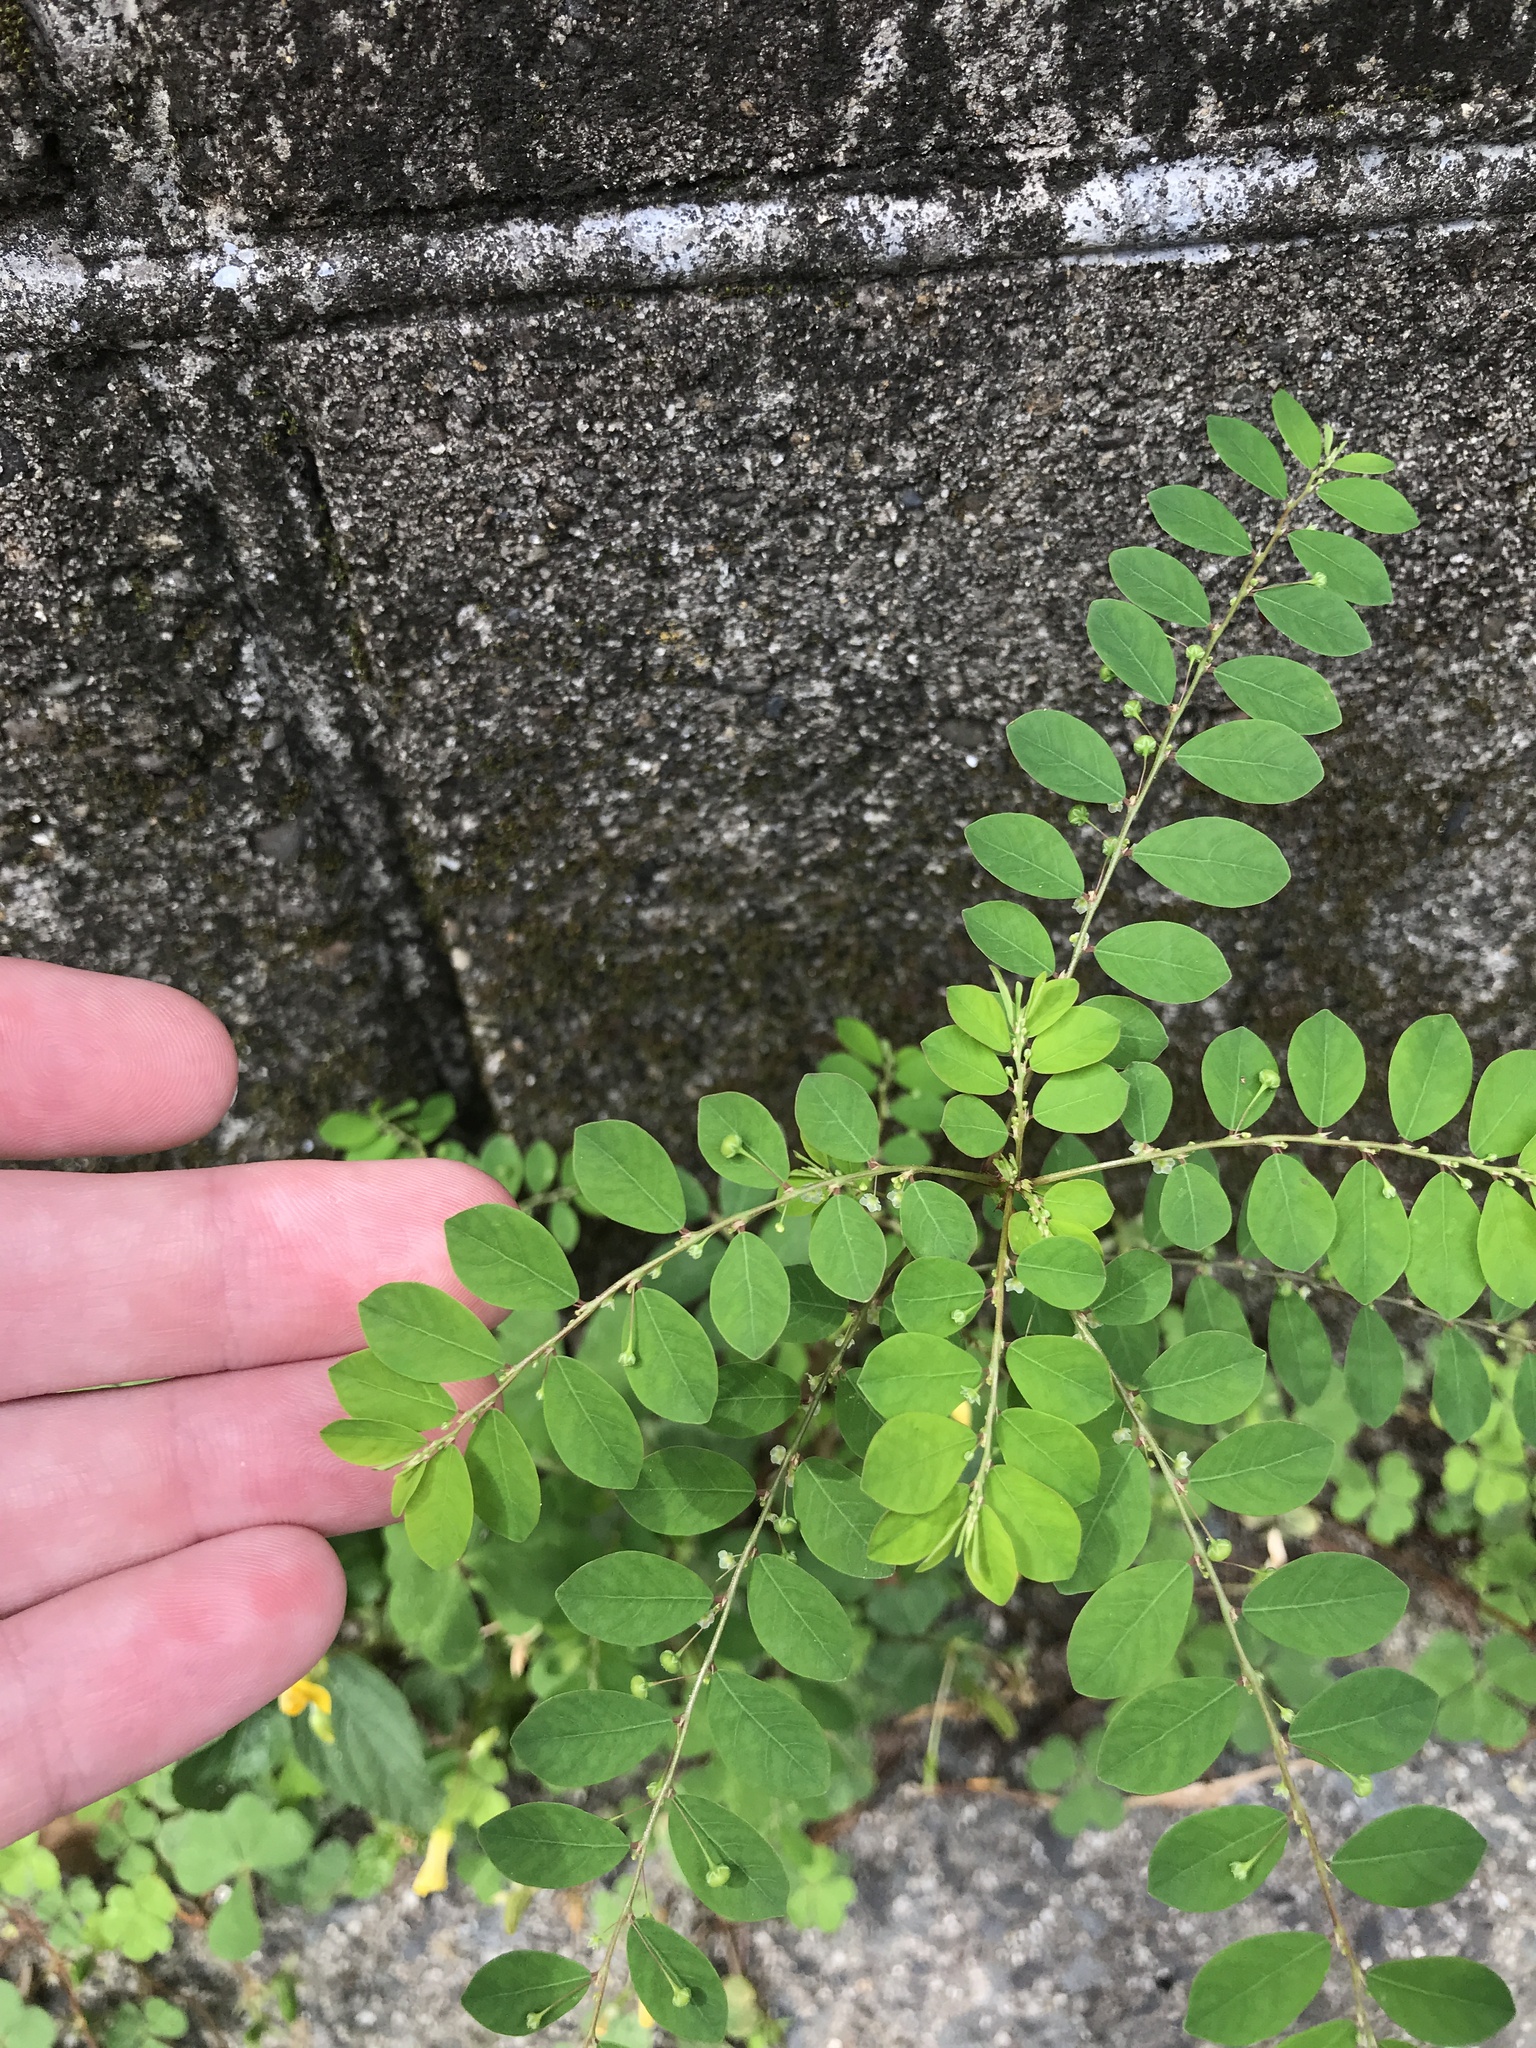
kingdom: Plantae
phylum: Tracheophyta
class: Magnoliopsida
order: Malpighiales
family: Phyllanthaceae
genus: Phyllanthus
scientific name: Phyllanthus tenellus
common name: Mascarene island leaf-flower
